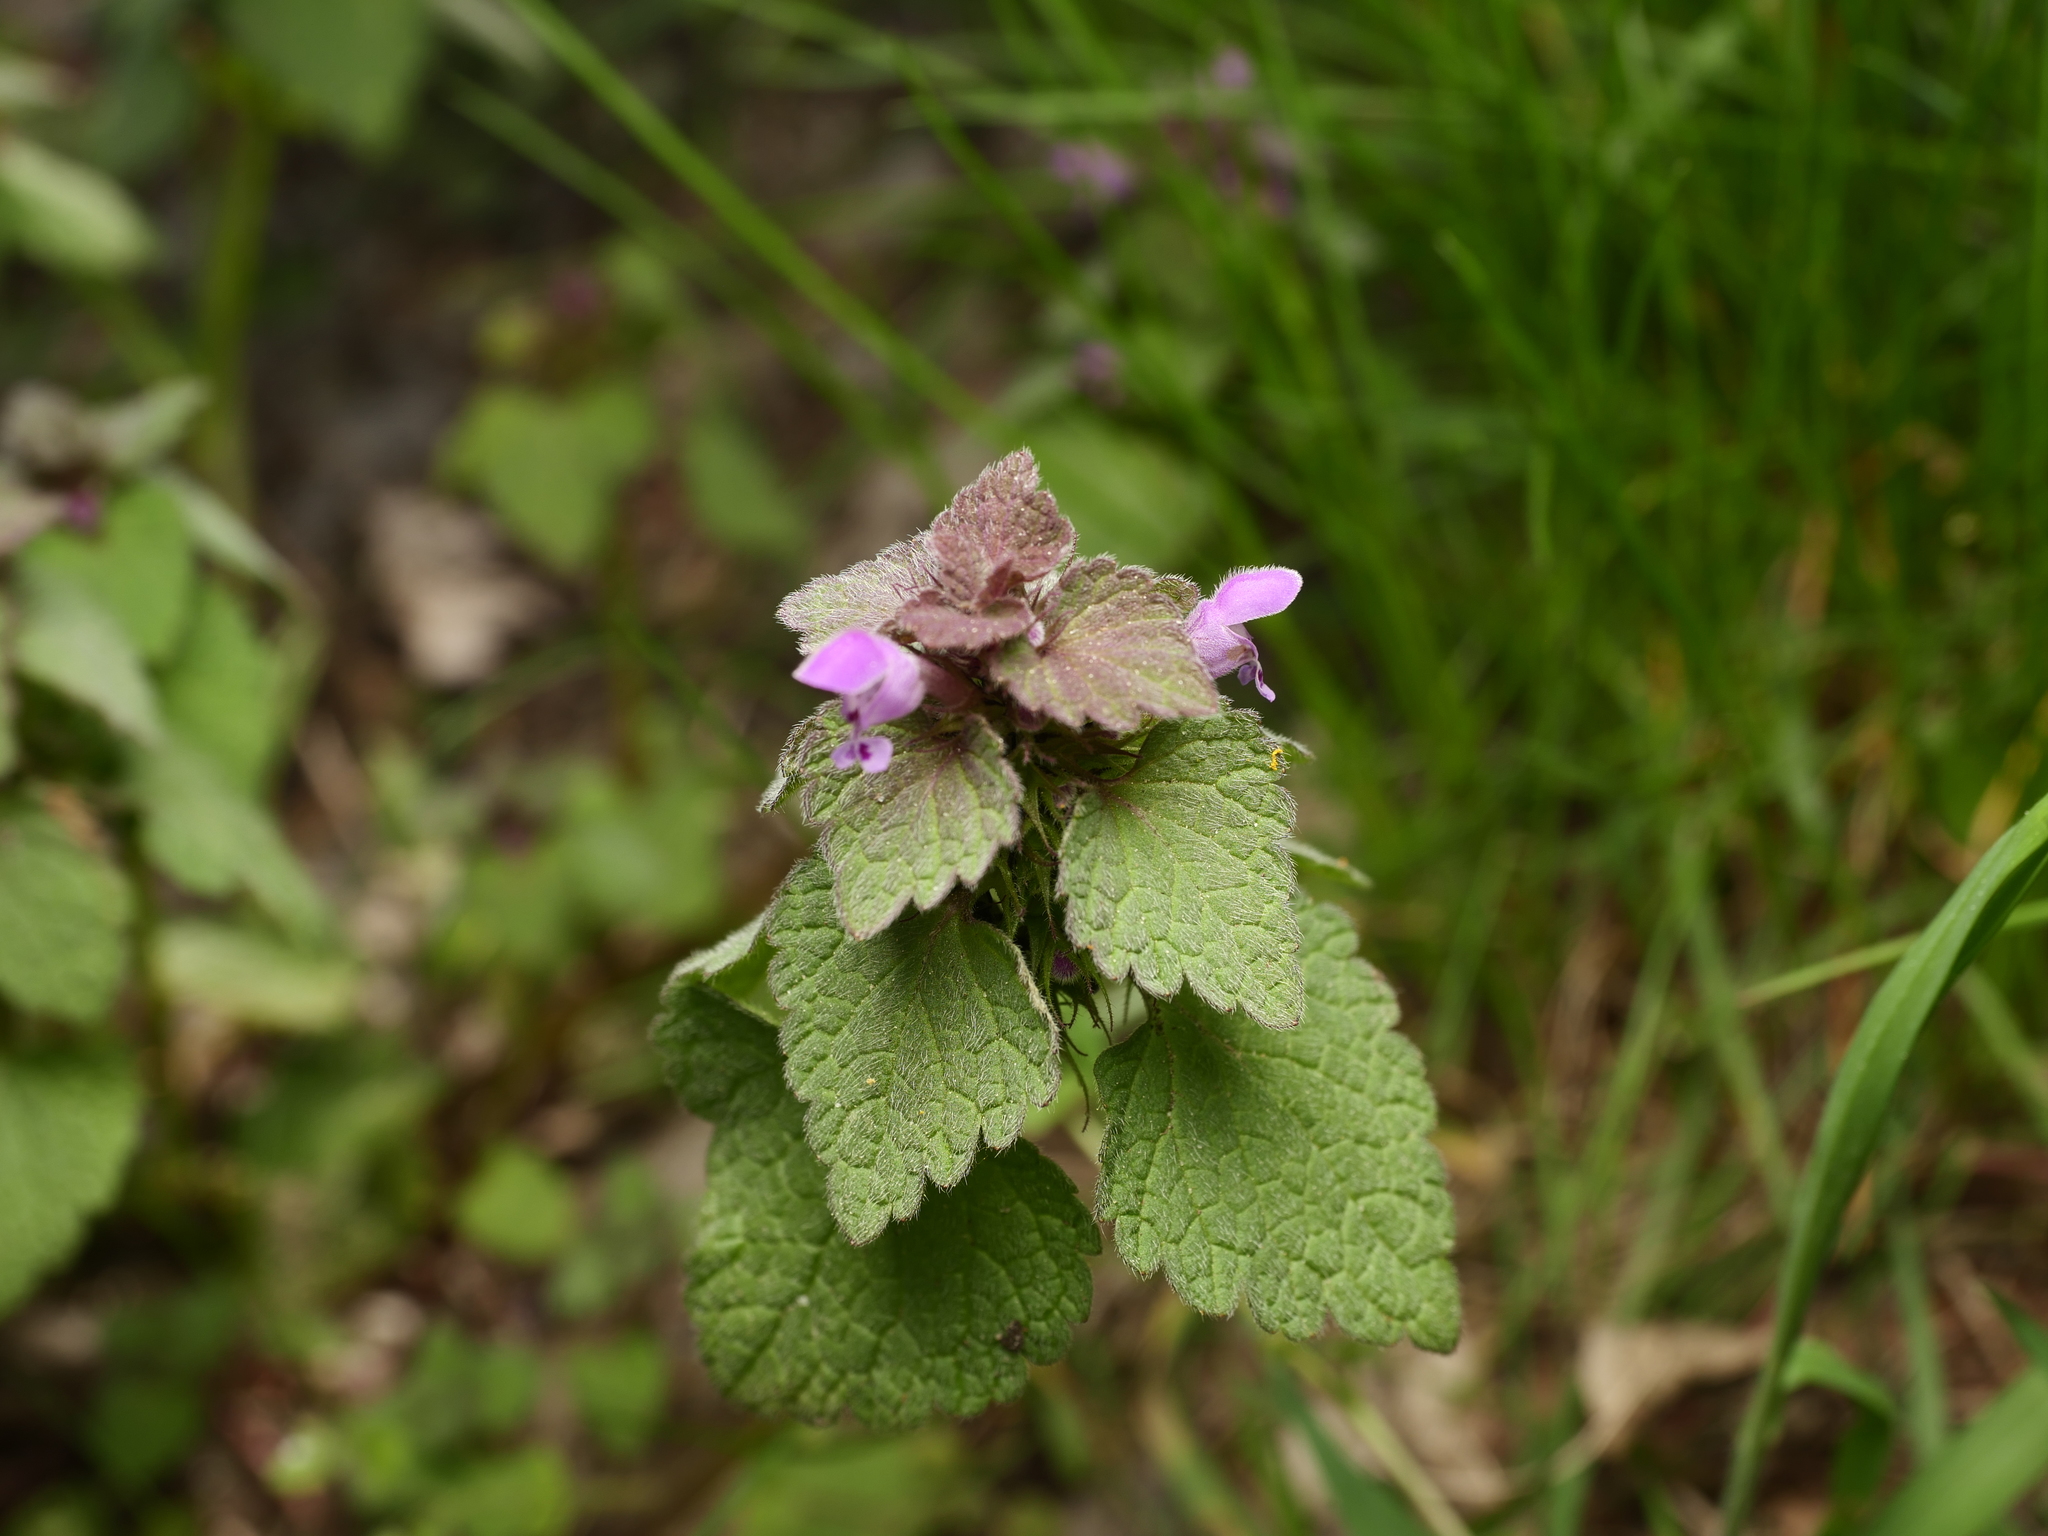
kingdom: Plantae
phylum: Tracheophyta
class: Magnoliopsida
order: Lamiales
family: Lamiaceae
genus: Lamium
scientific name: Lamium purpureum
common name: Red dead-nettle
